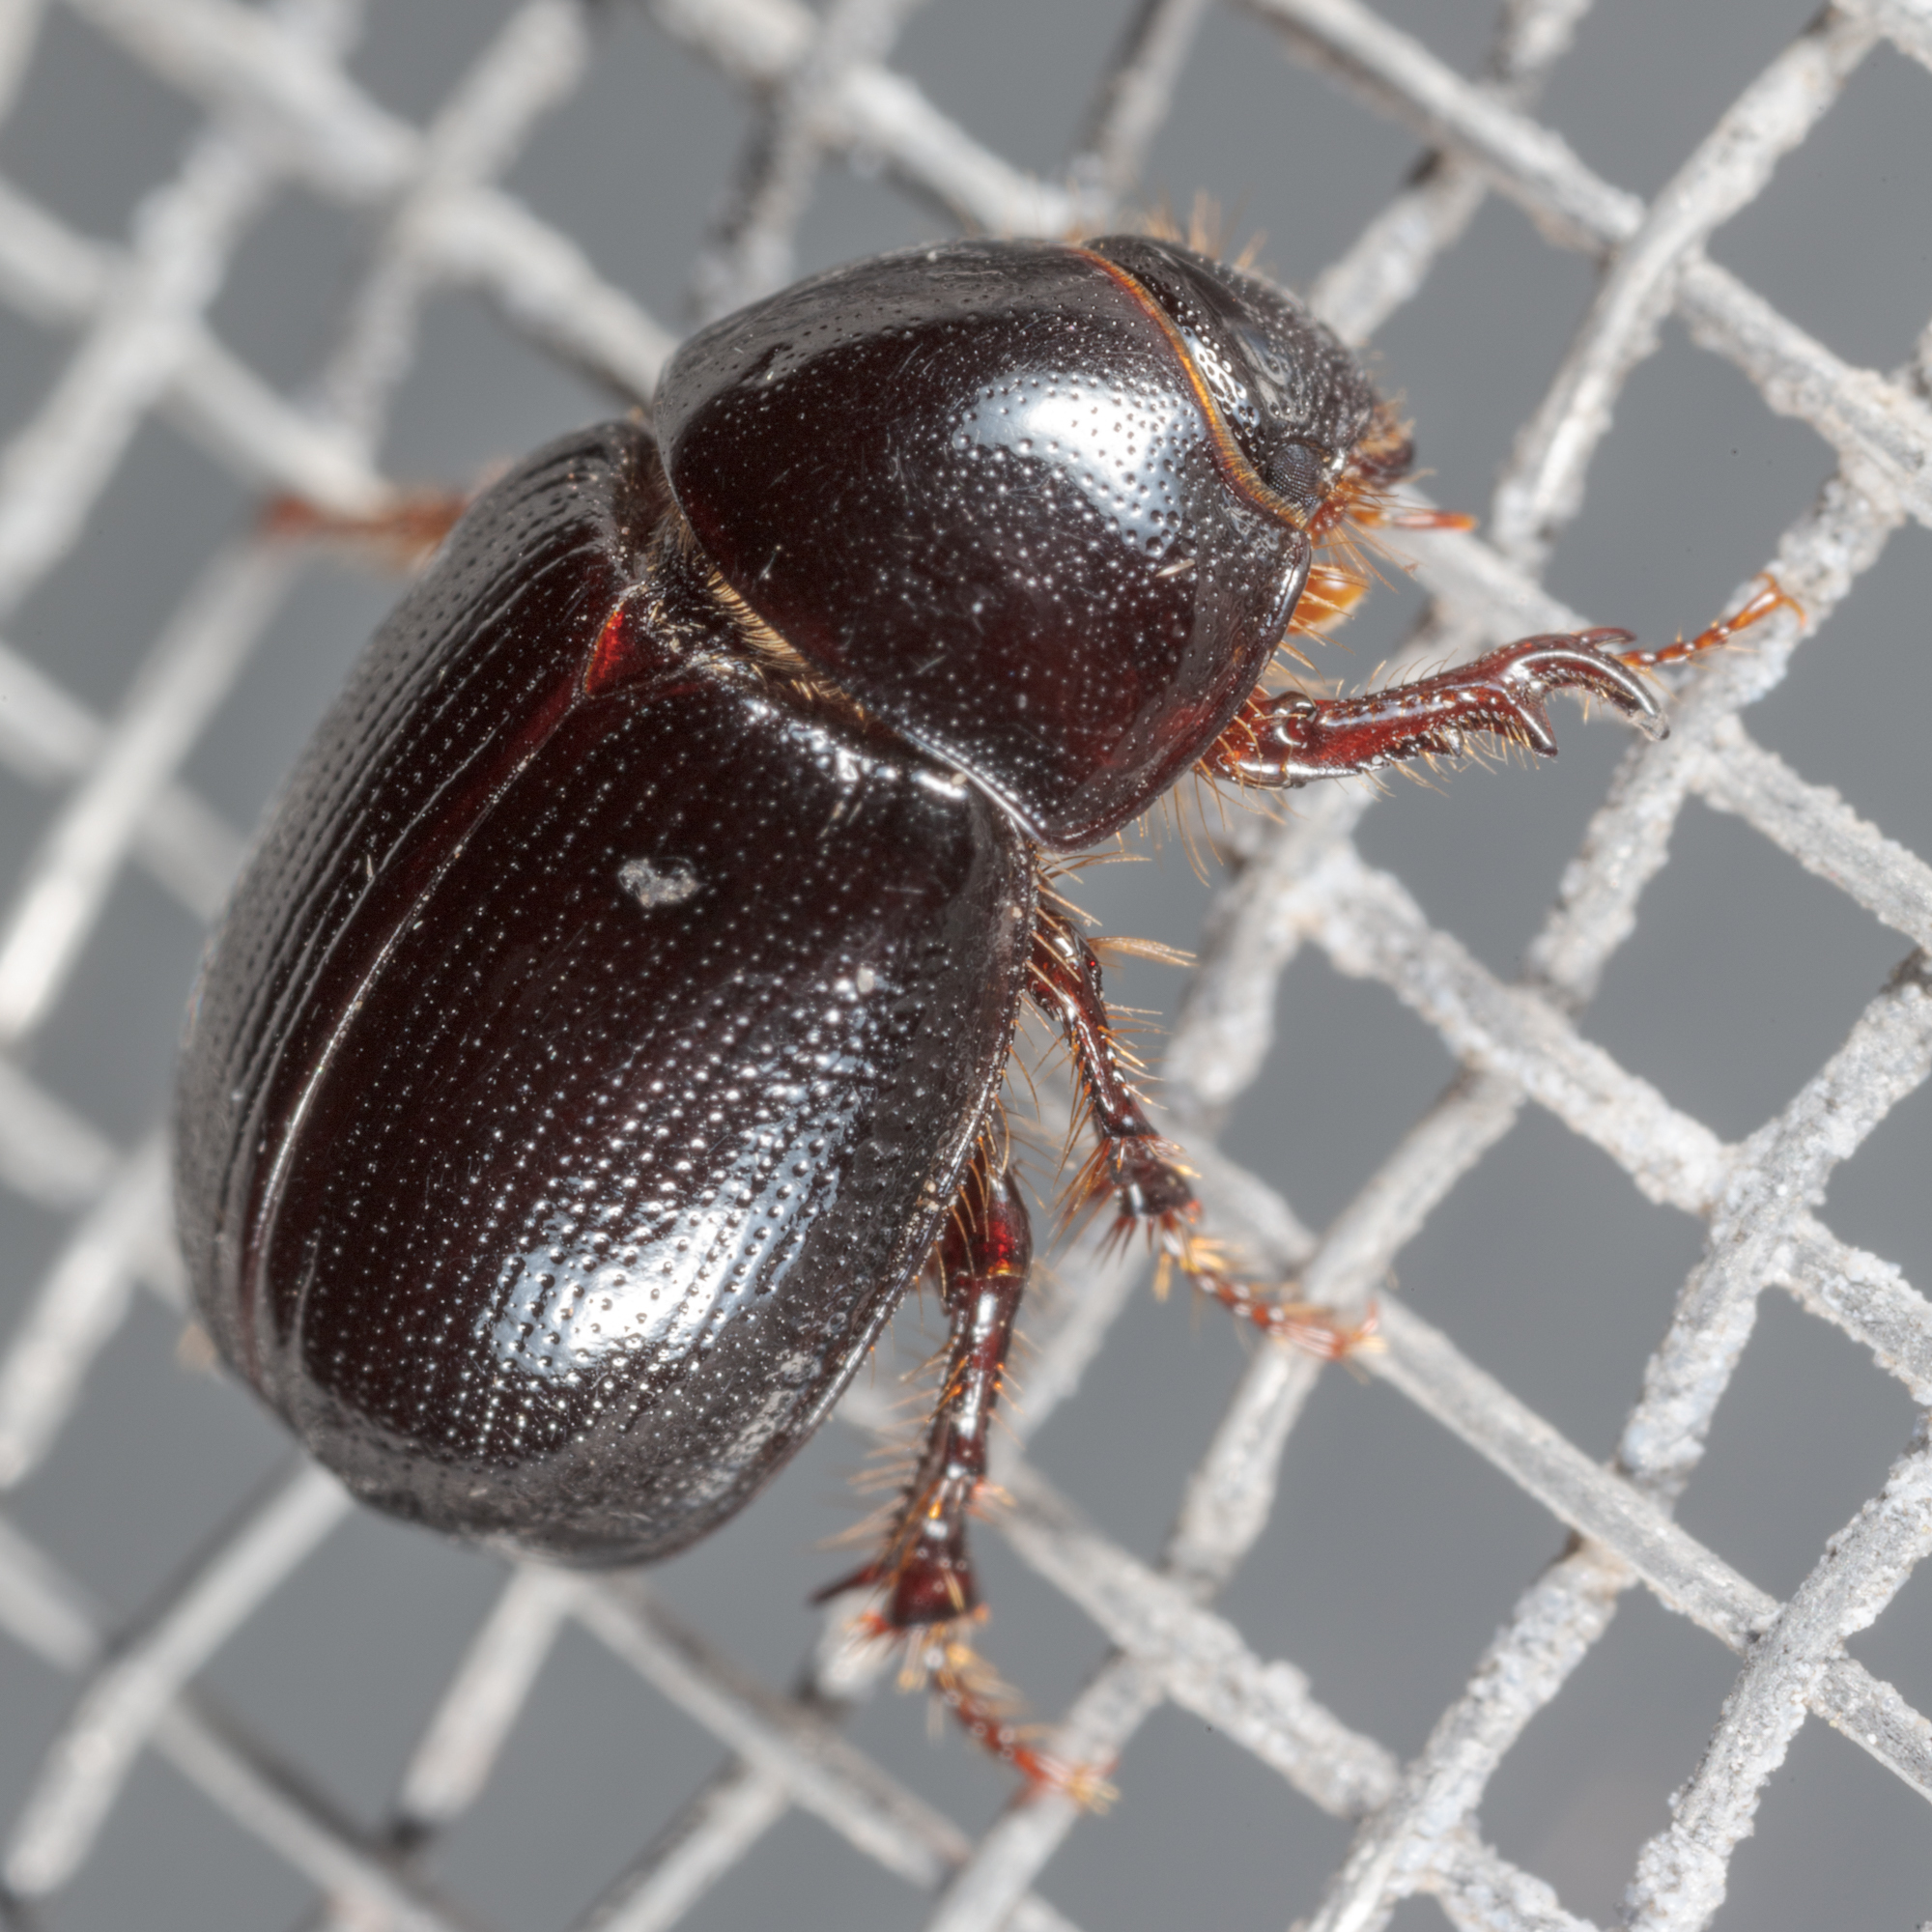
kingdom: Animalia
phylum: Arthropoda
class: Insecta
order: Coleoptera
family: Hybosoridae
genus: Hybosorus
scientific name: Hybosorus illigeri
